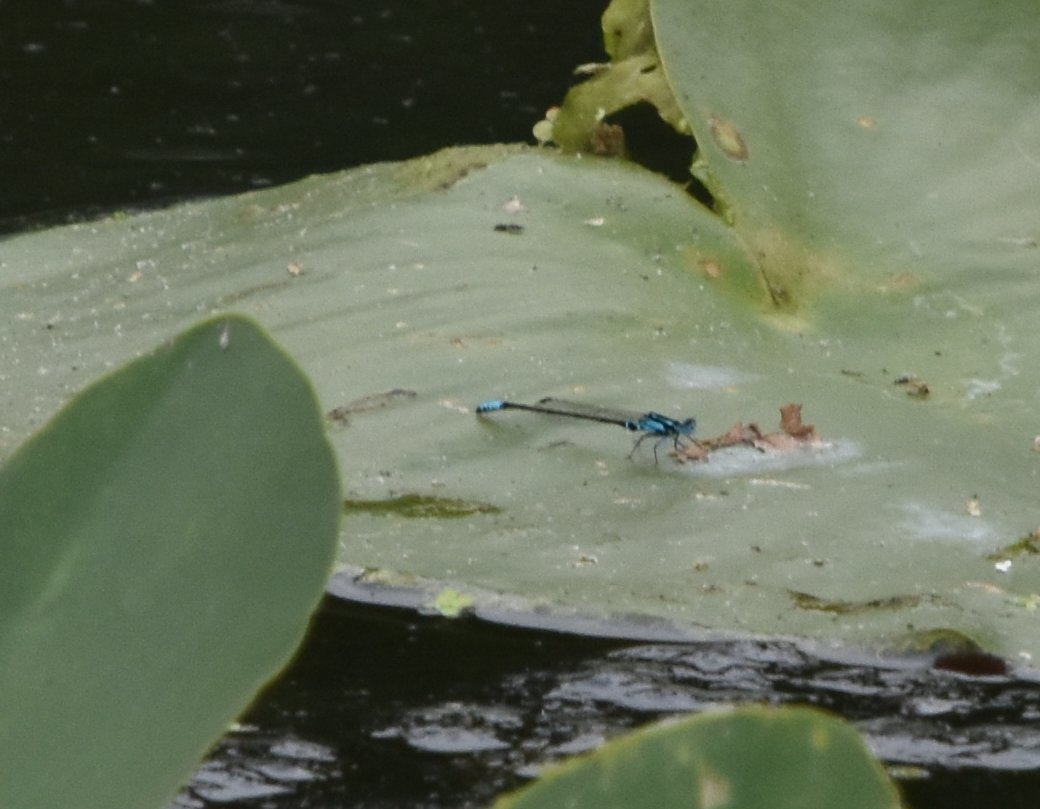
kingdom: Animalia
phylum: Arthropoda
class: Insecta
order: Odonata
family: Coenagrionidae
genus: Ischnura
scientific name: Ischnura kellicotti
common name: Lilypad forktail
